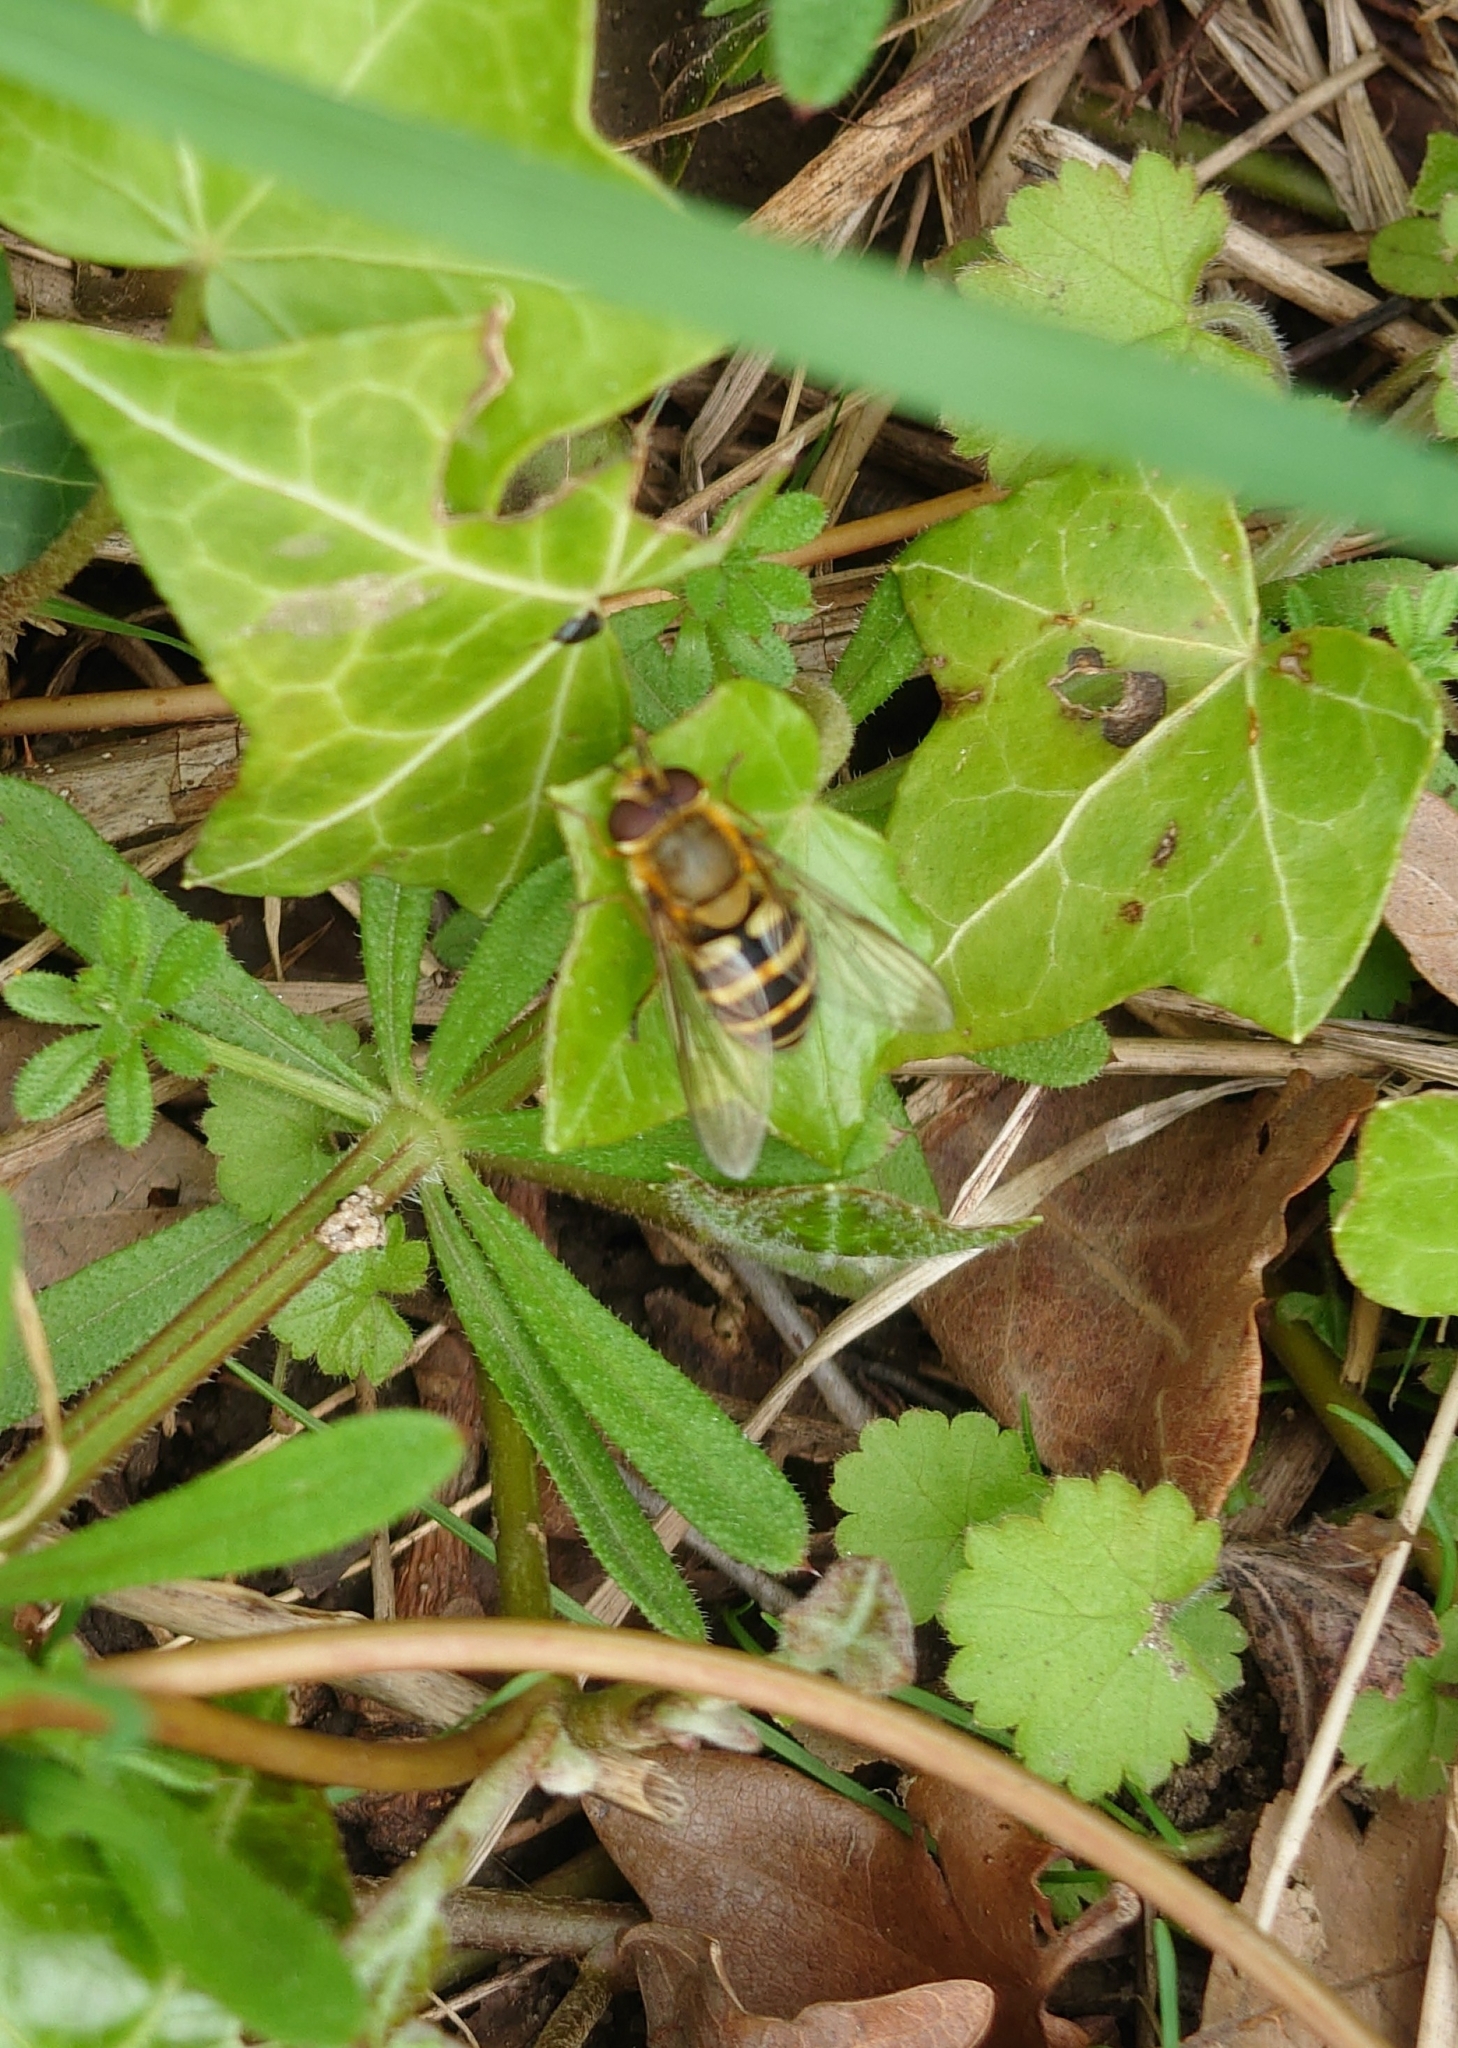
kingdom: Animalia
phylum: Arthropoda
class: Insecta
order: Diptera
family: Syrphidae
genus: Syrphus
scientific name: Syrphus
